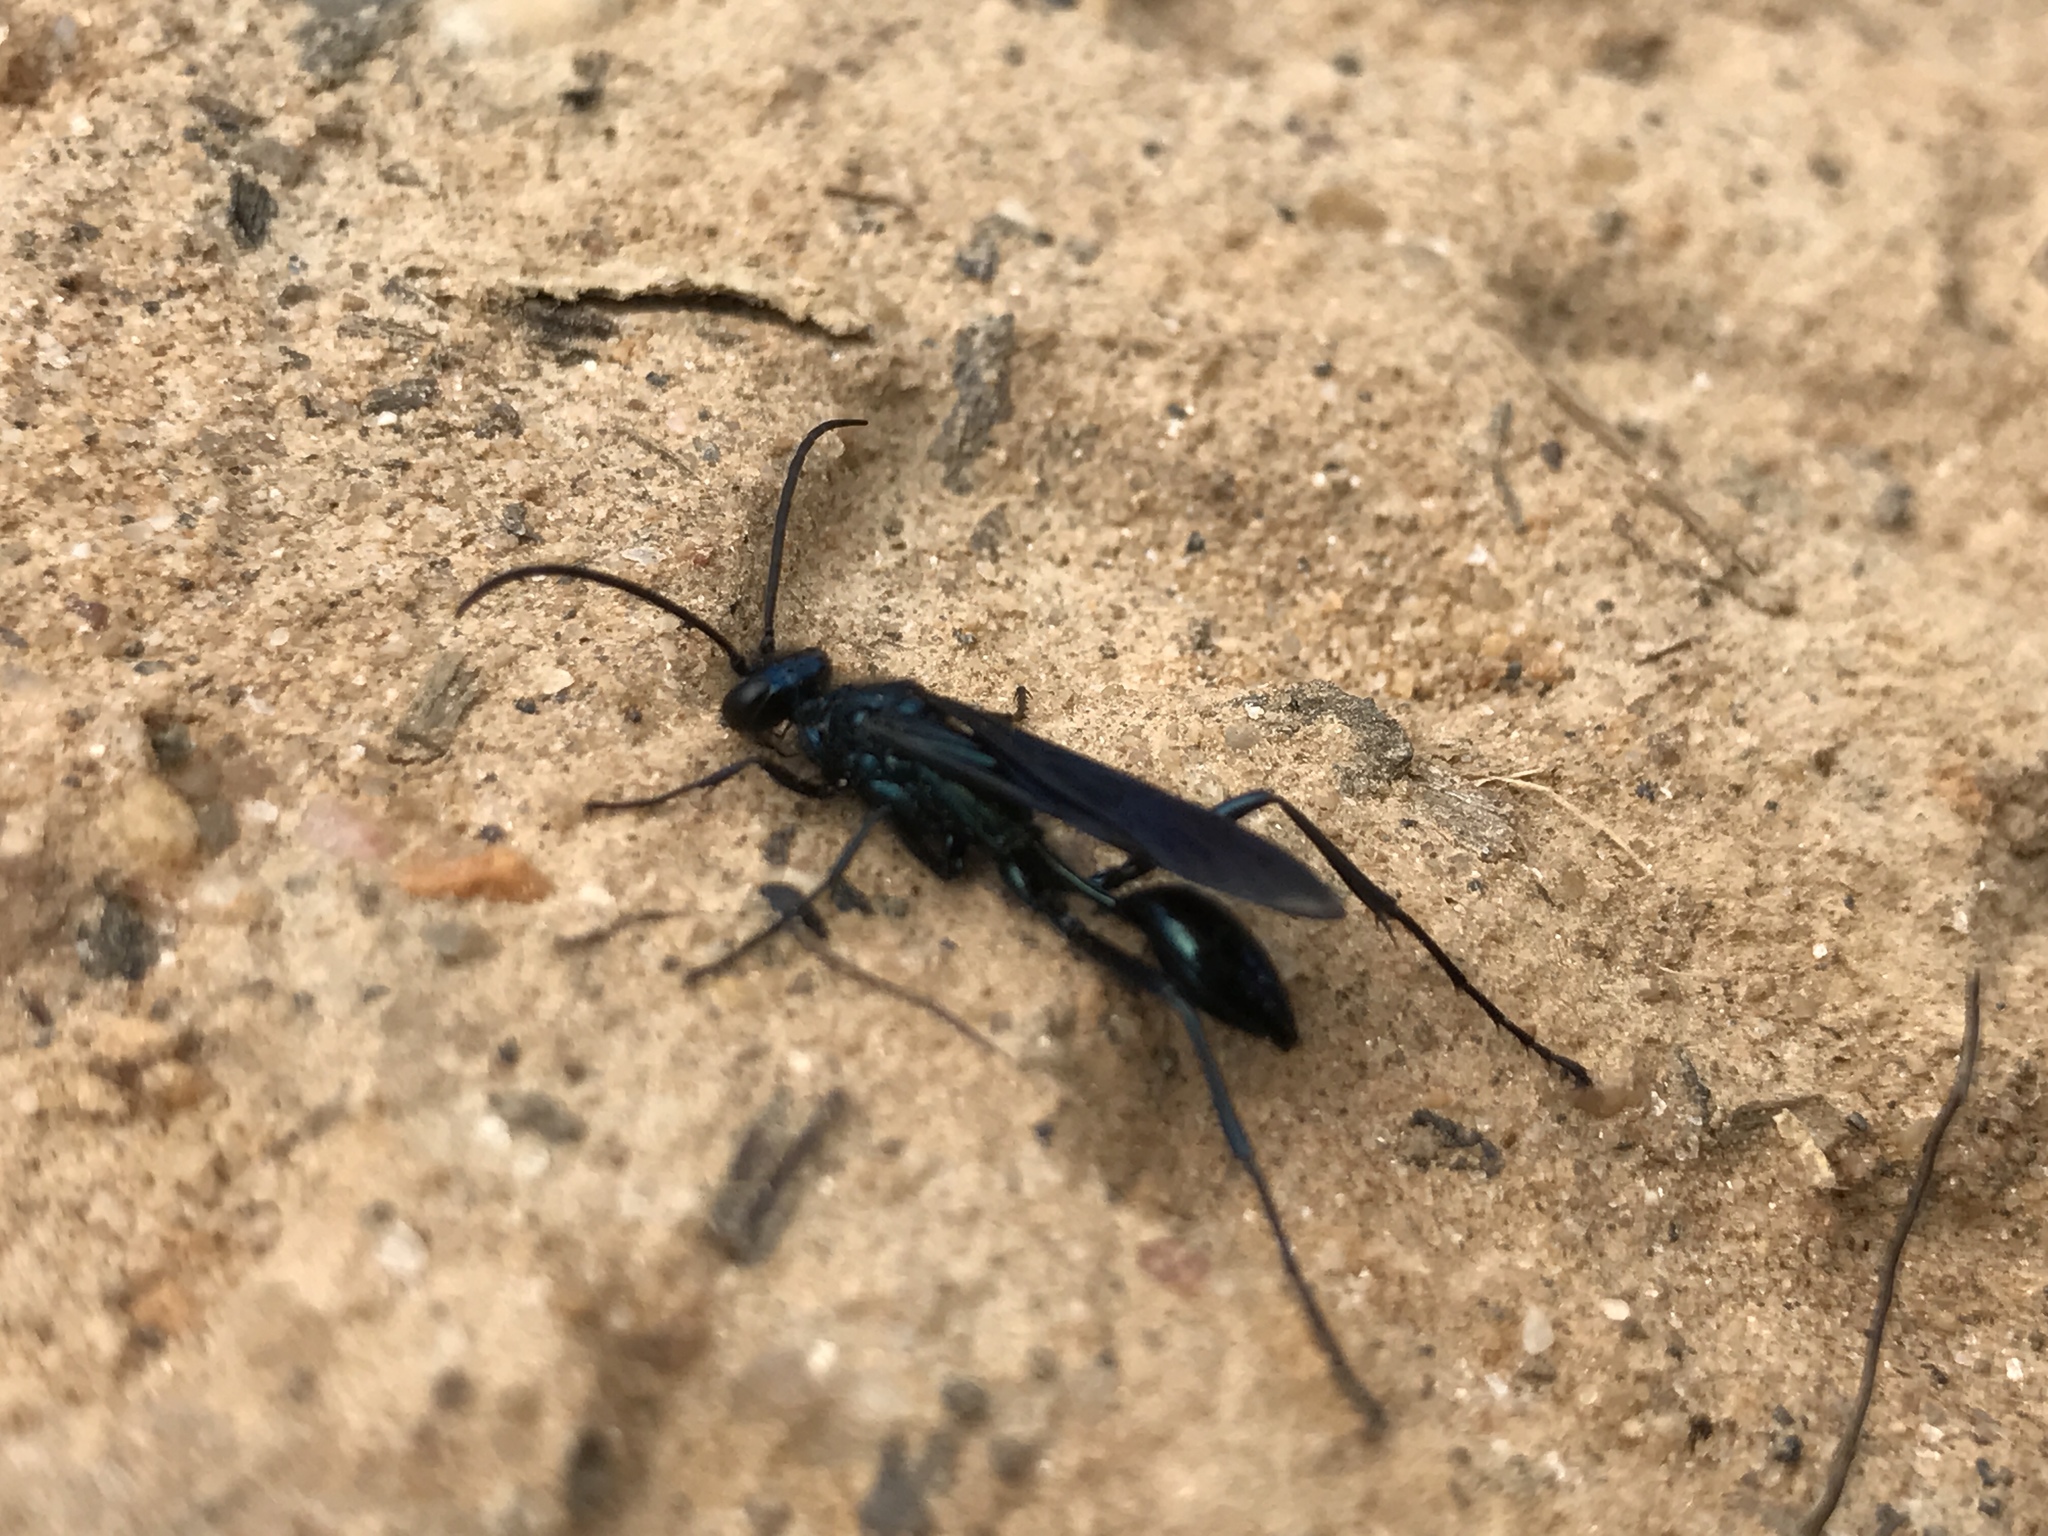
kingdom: Animalia
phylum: Arthropoda
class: Insecta
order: Hymenoptera
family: Sphecidae
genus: Chalybion
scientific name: Chalybion californicum
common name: Mud dauber
